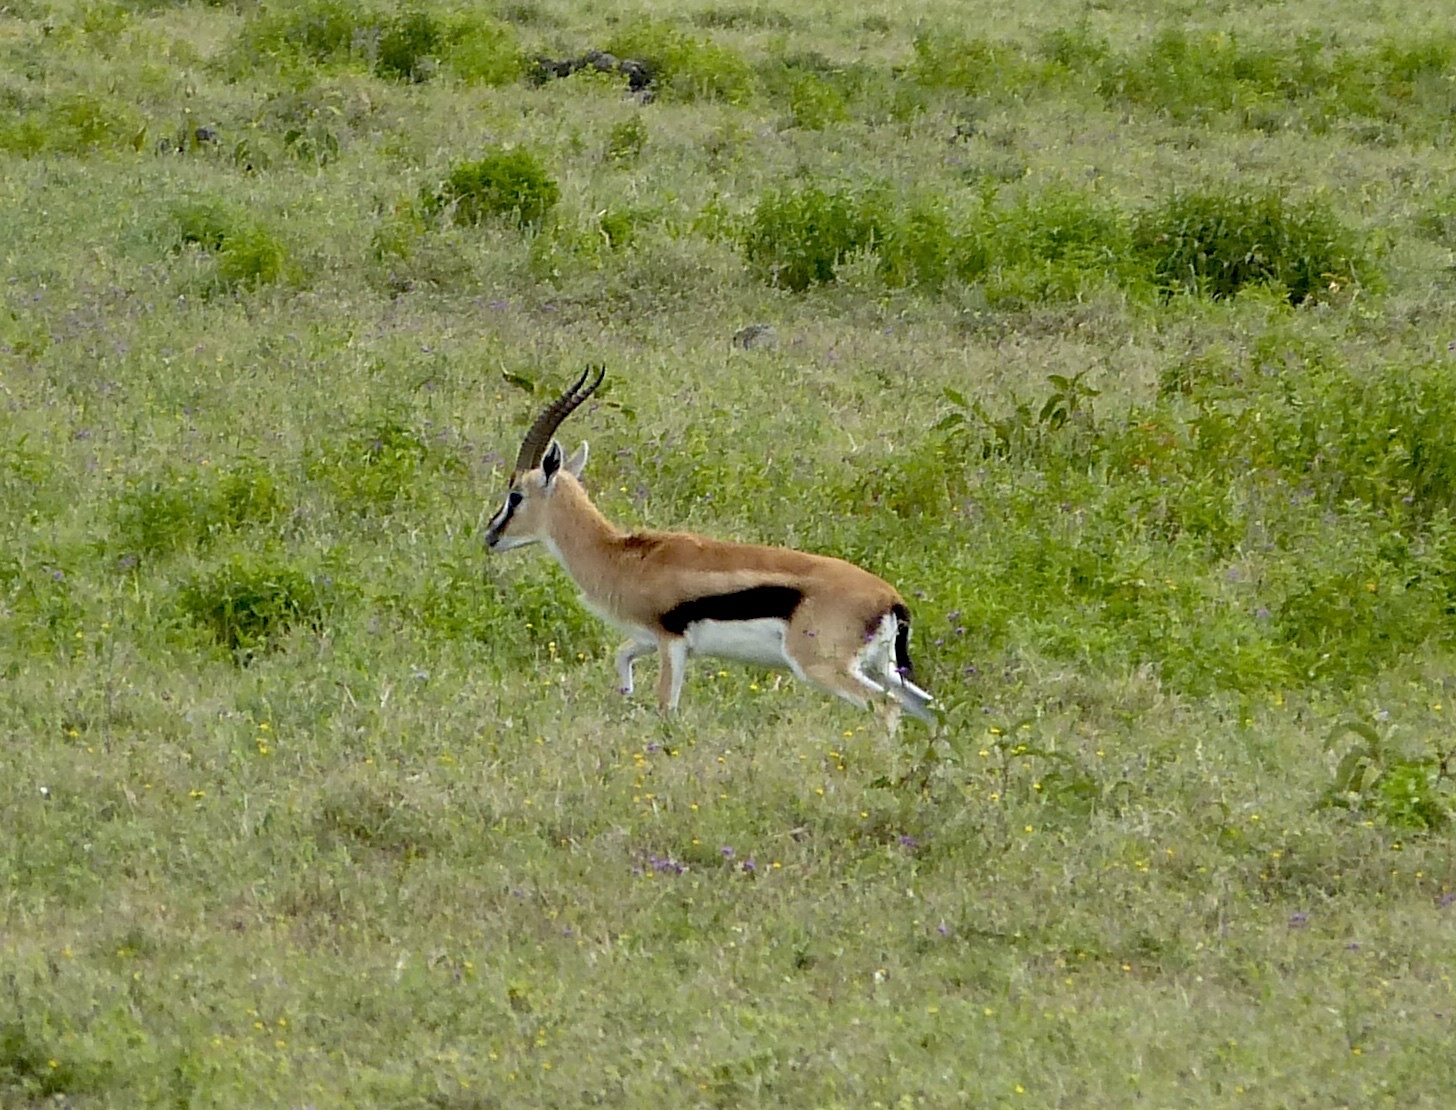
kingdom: Animalia
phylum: Chordata
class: Mammalia
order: Artiodactyla
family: Bovidae
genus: Eudorcas
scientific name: Eudorcas thomsonii
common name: Thomson's gazelle
